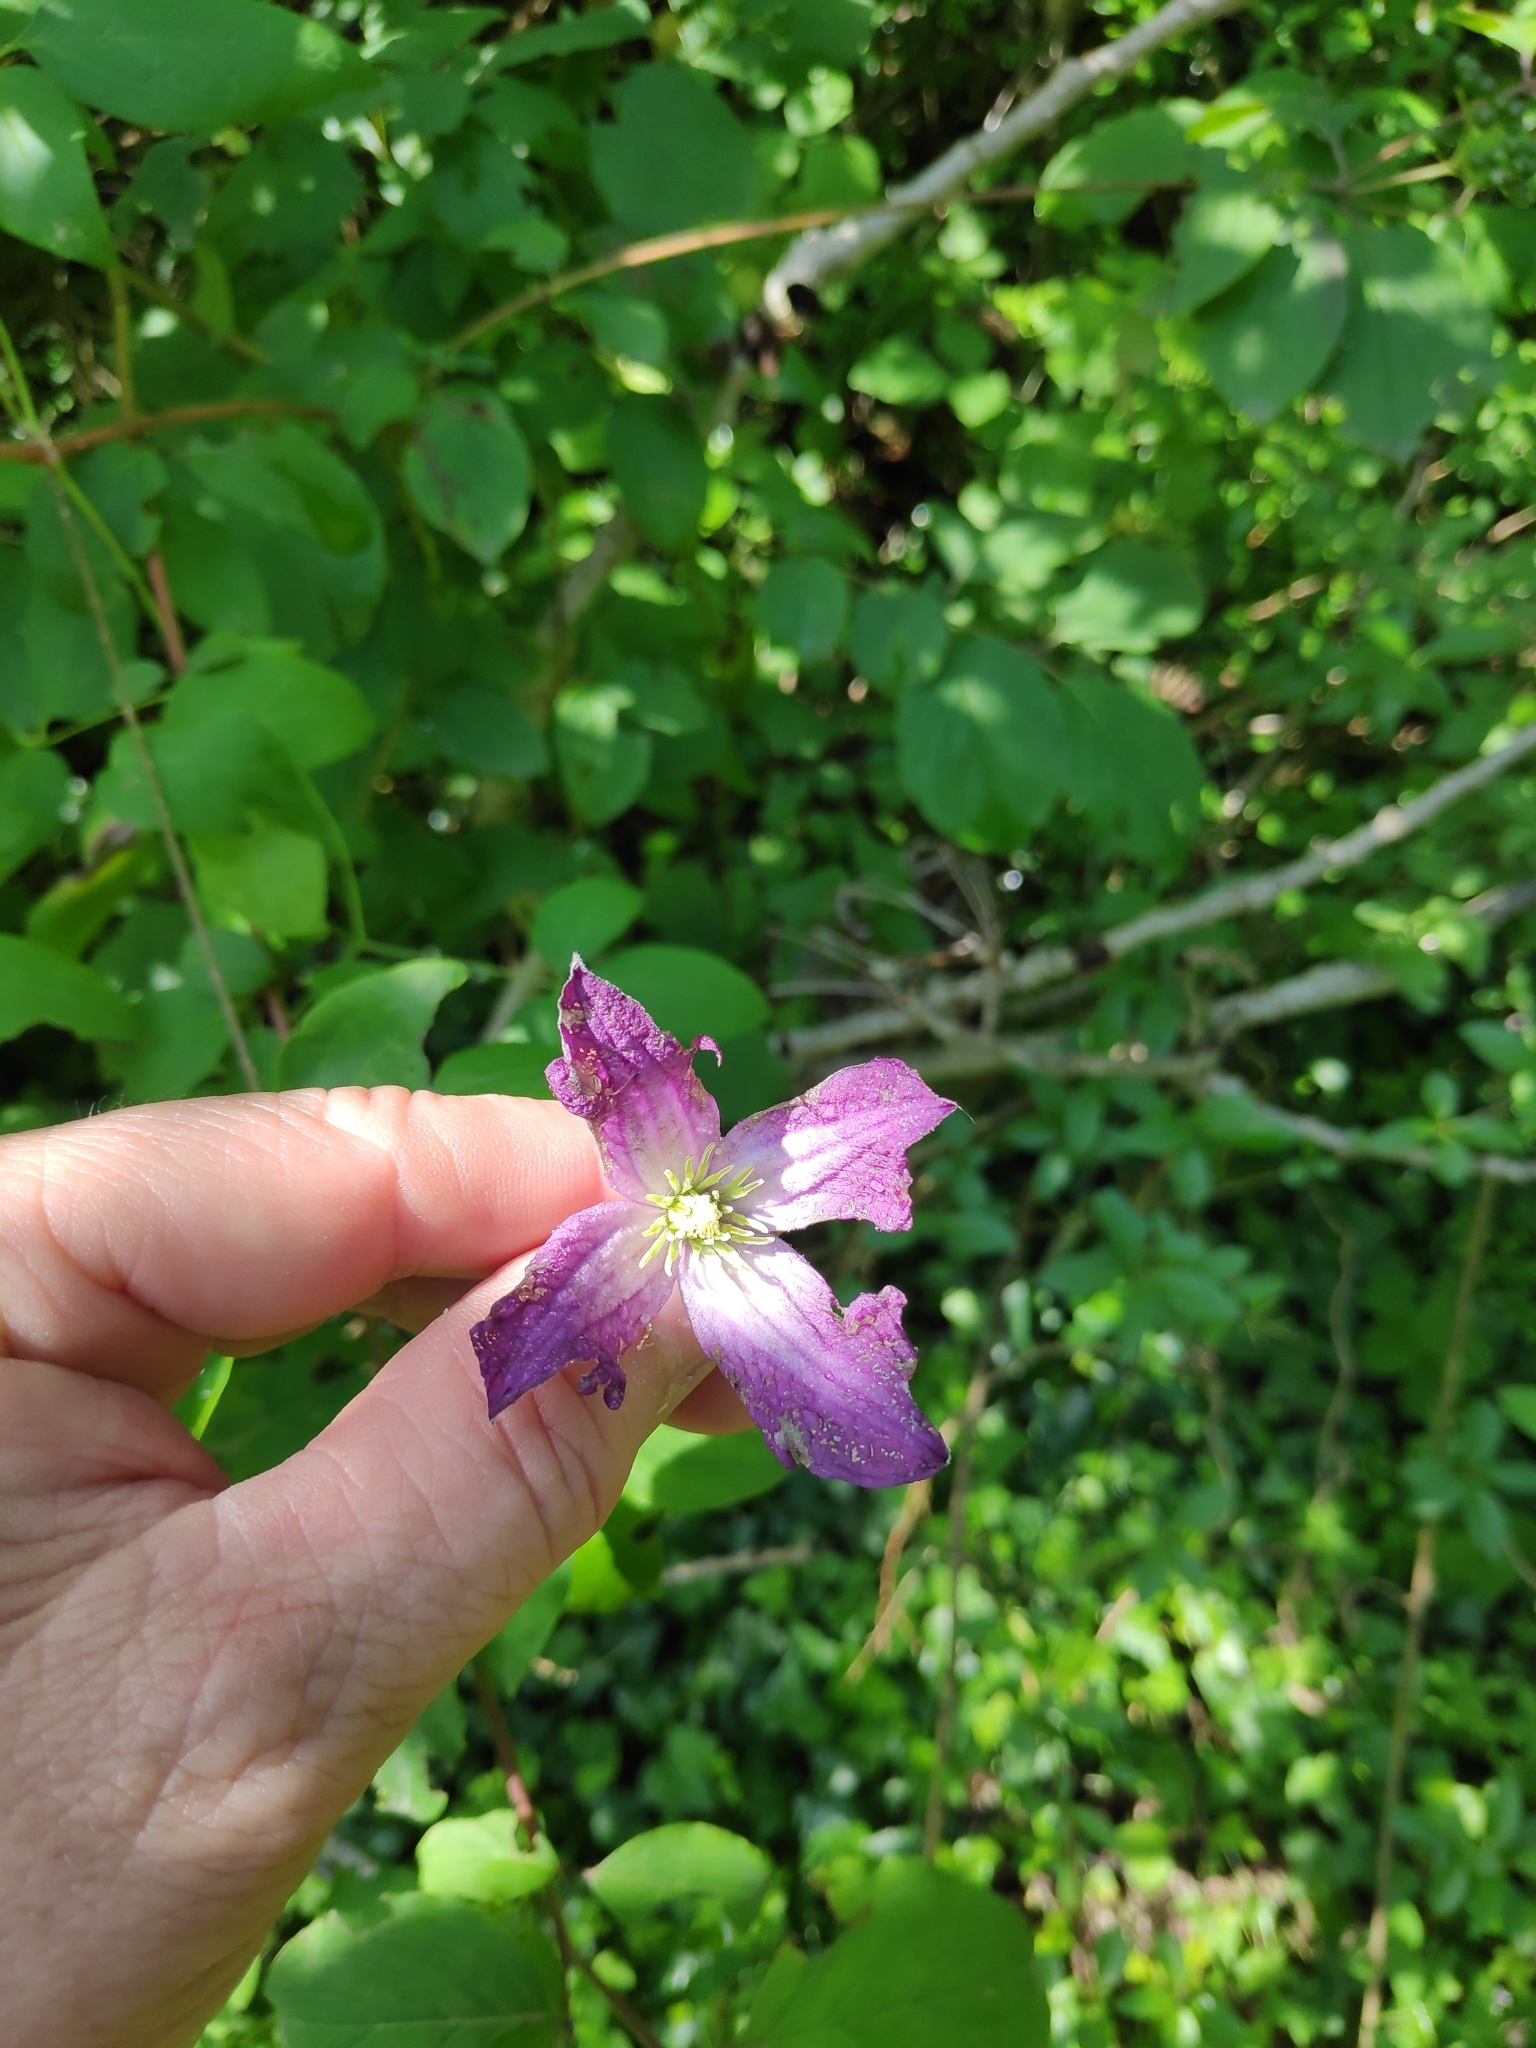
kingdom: Plantae
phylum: Tracheophyta
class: Magnoliopsida
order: Ranunculales
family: Ranunculaceae
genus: Clematis
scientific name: Clematis viticella
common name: Purple clematis
